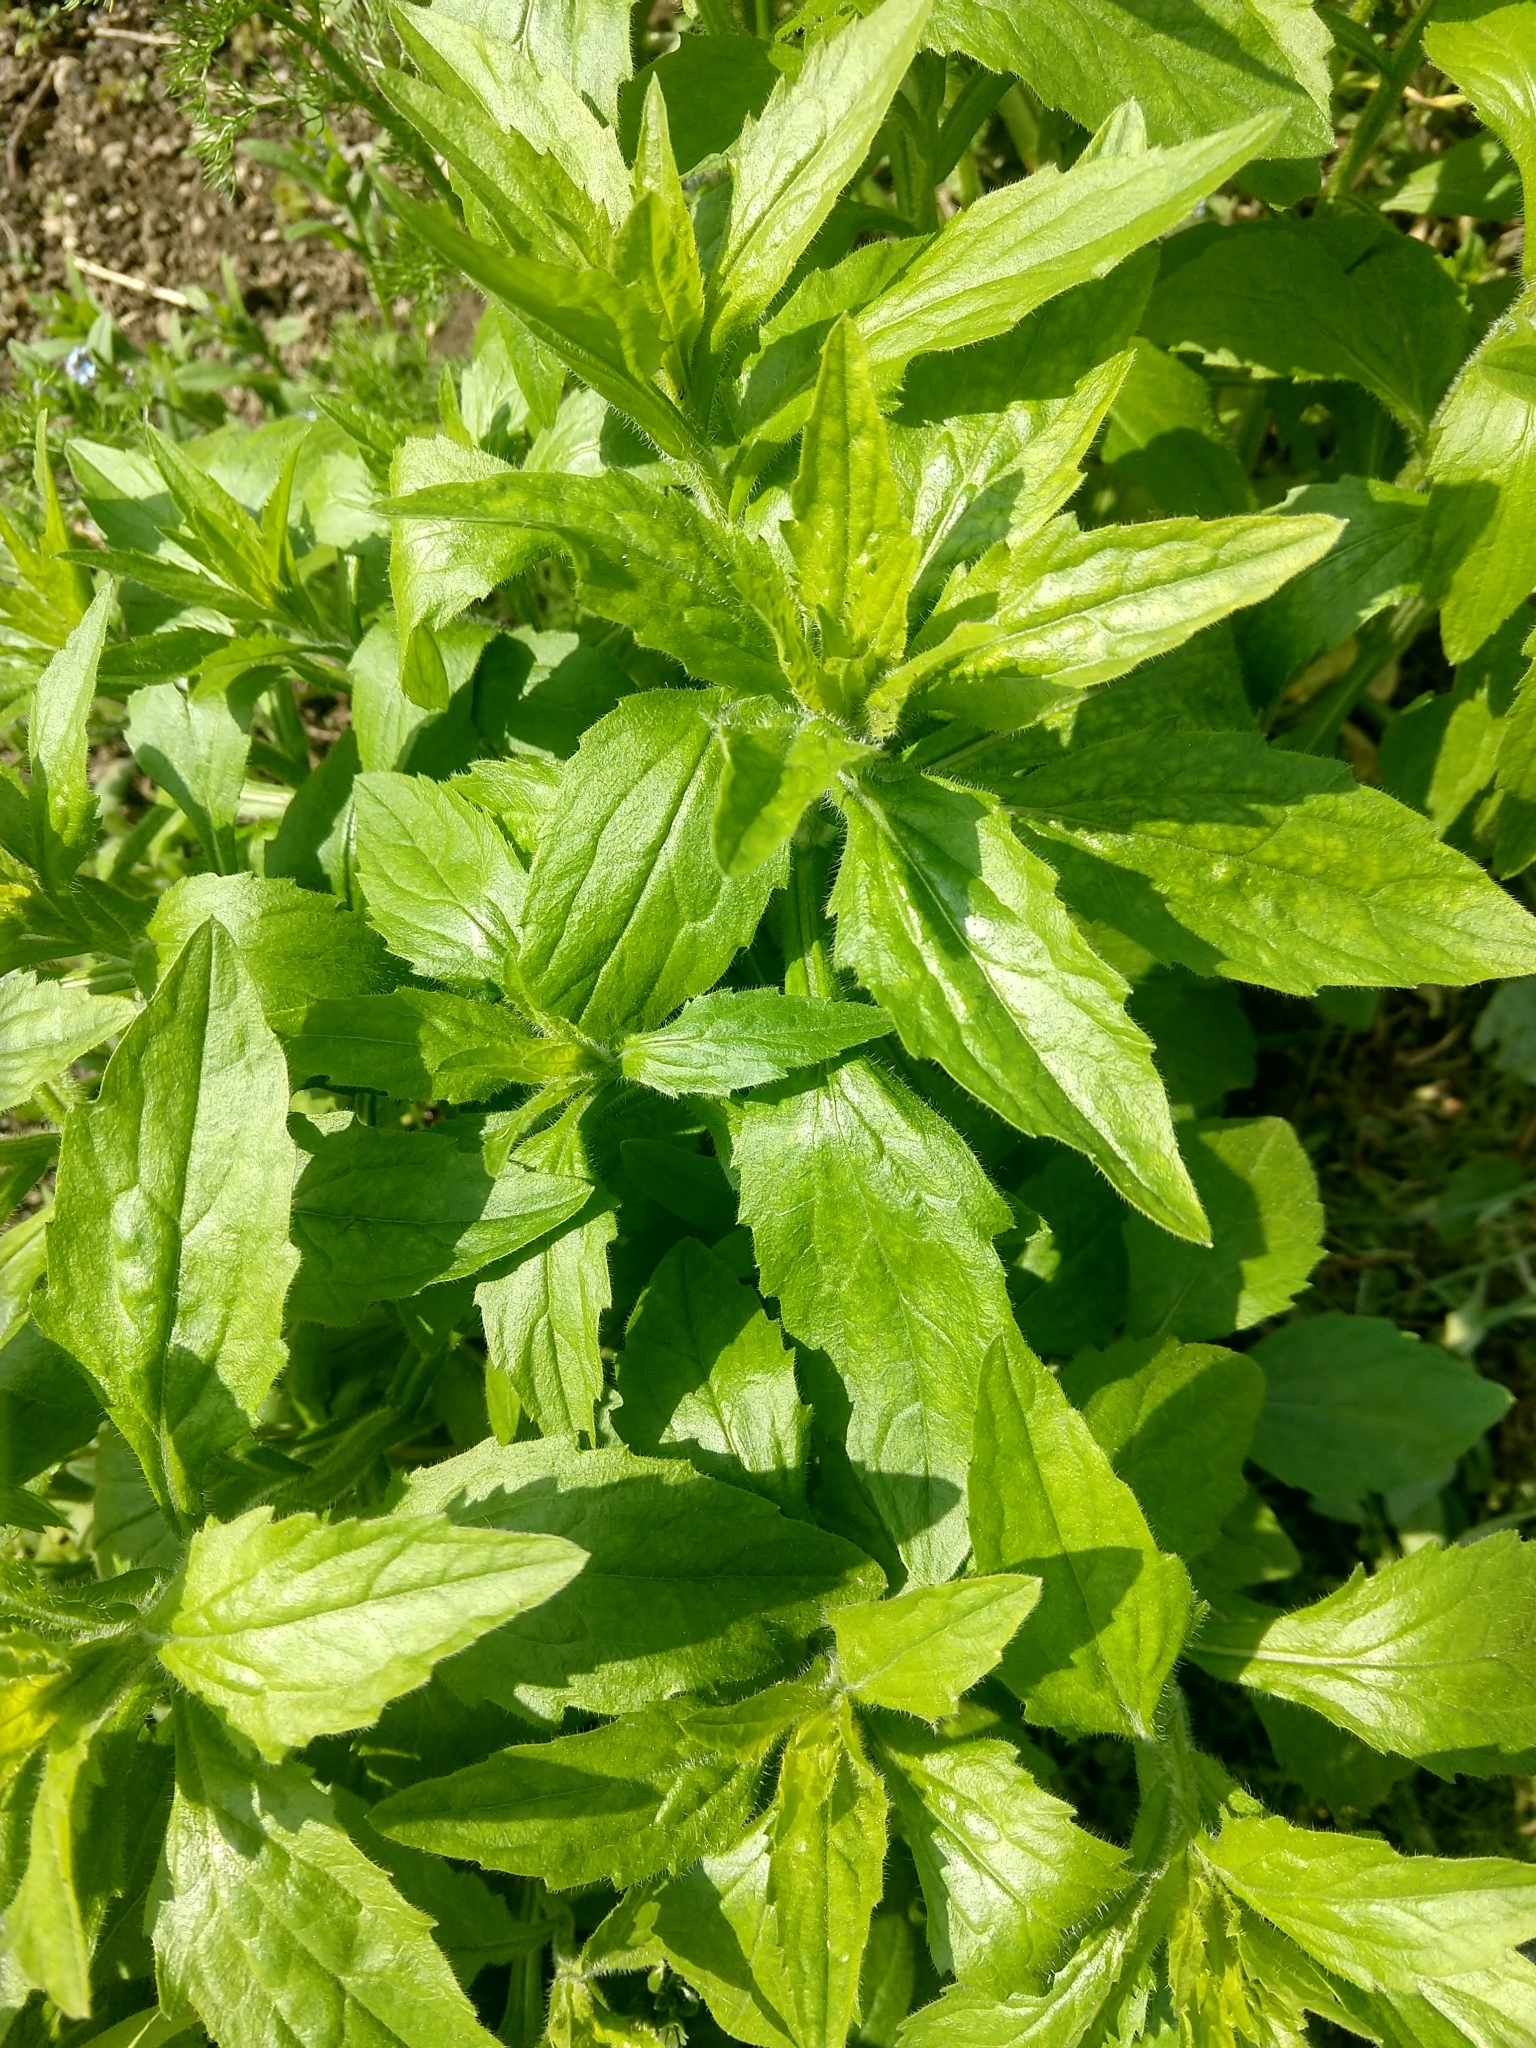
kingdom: Plantae
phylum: Tracheophyta
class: Magnoliopsida
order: Asterales
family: Asteraceae
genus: Erigeron
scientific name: Erigeron annuus
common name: Tall fleabane
